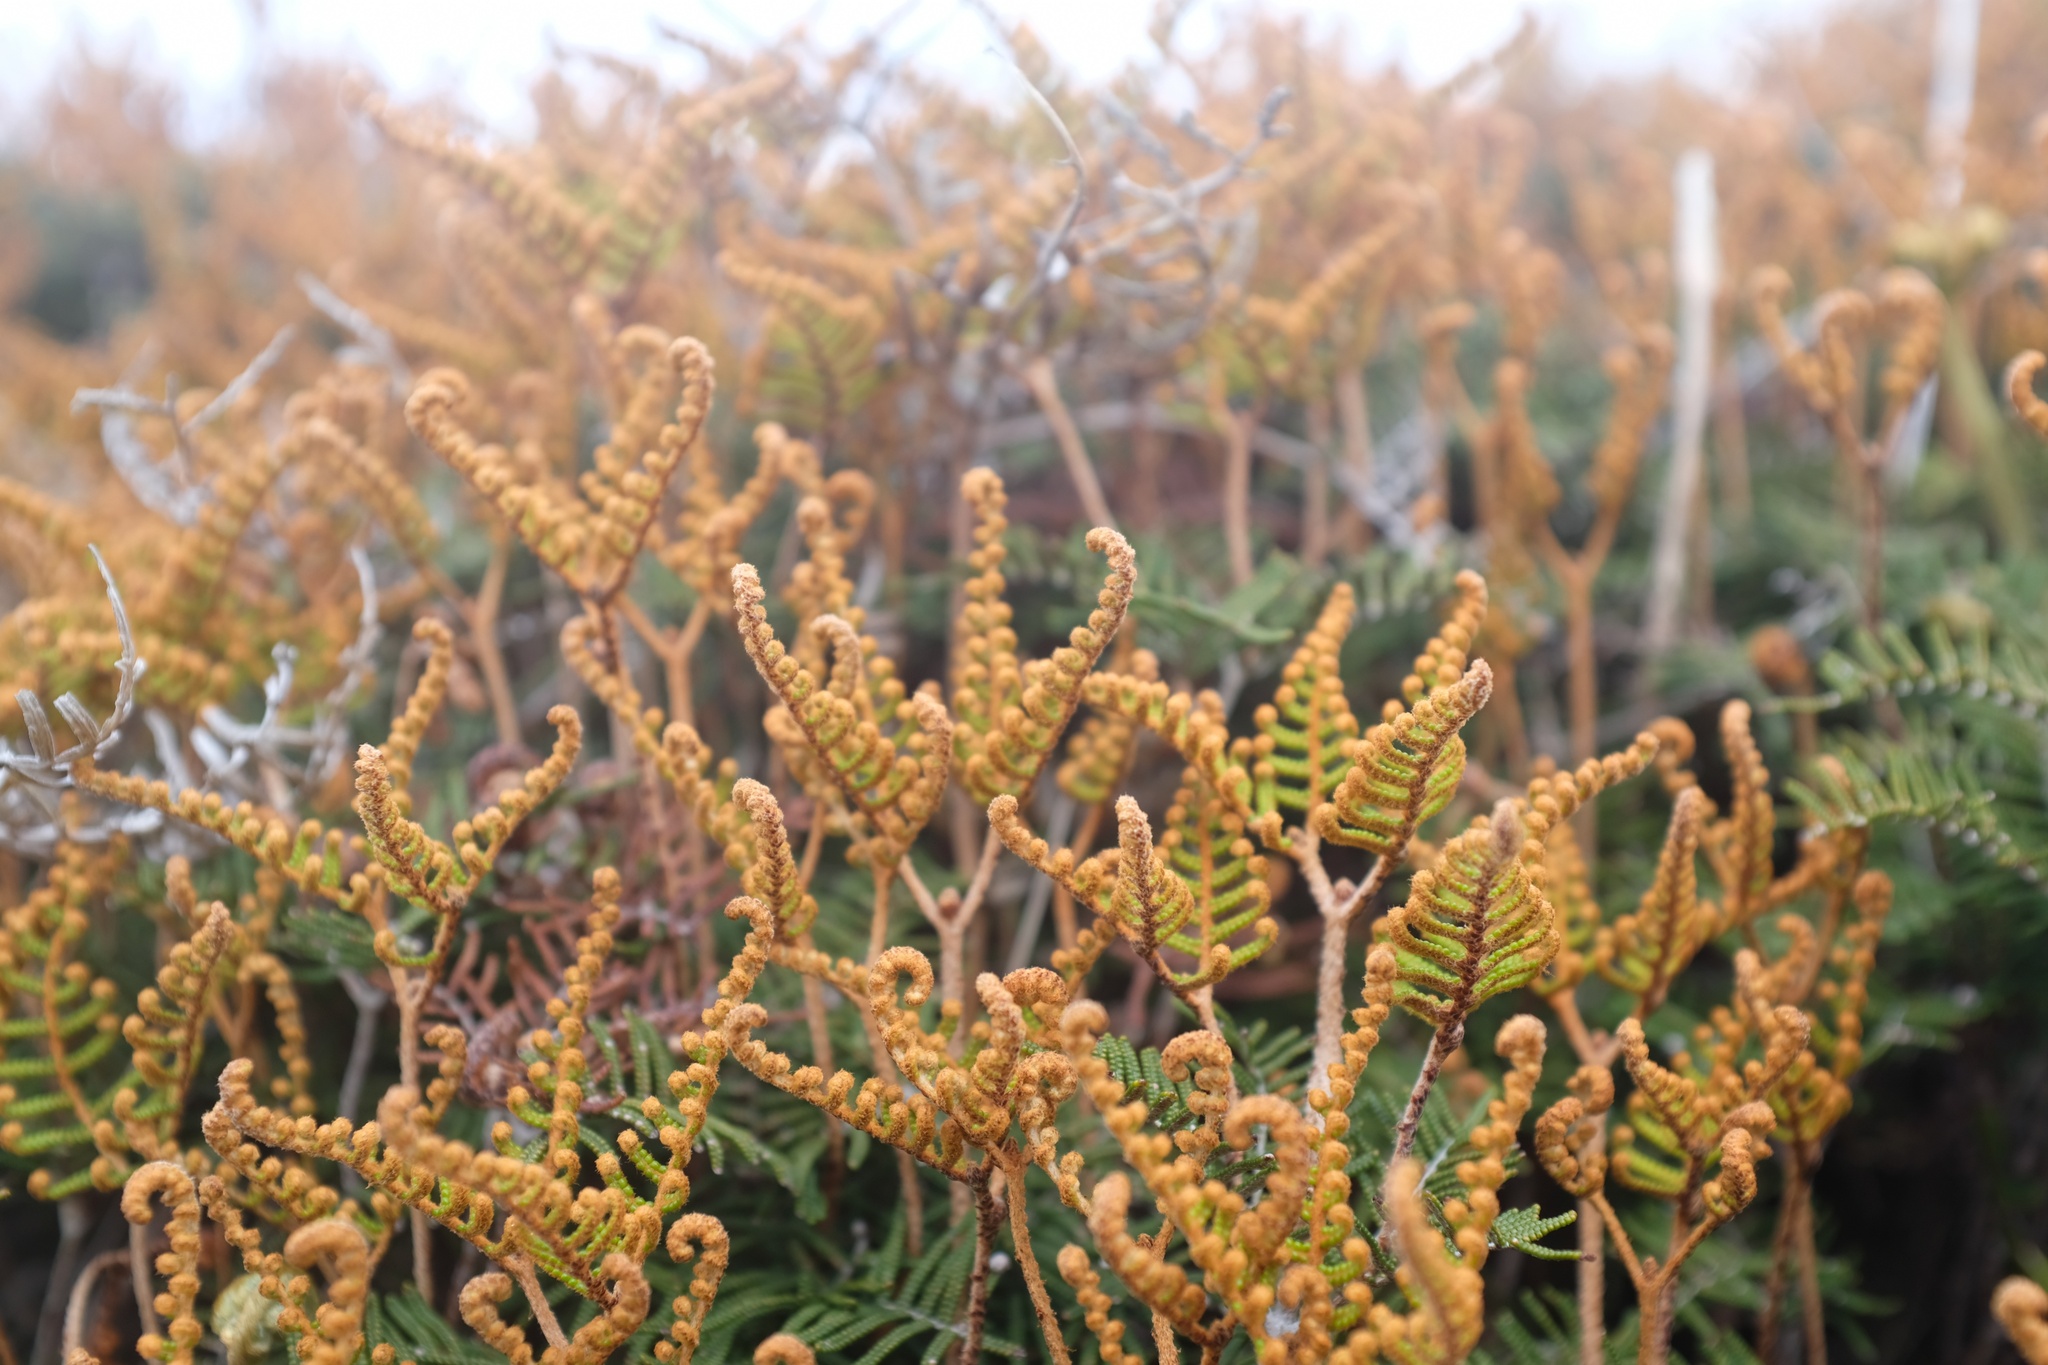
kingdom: Plantae
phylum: Tracheophyta
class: Polypodiopsida
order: Gleicheniales
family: Gleicheniaceae
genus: Gleichenia
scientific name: Gleichenia alpina
